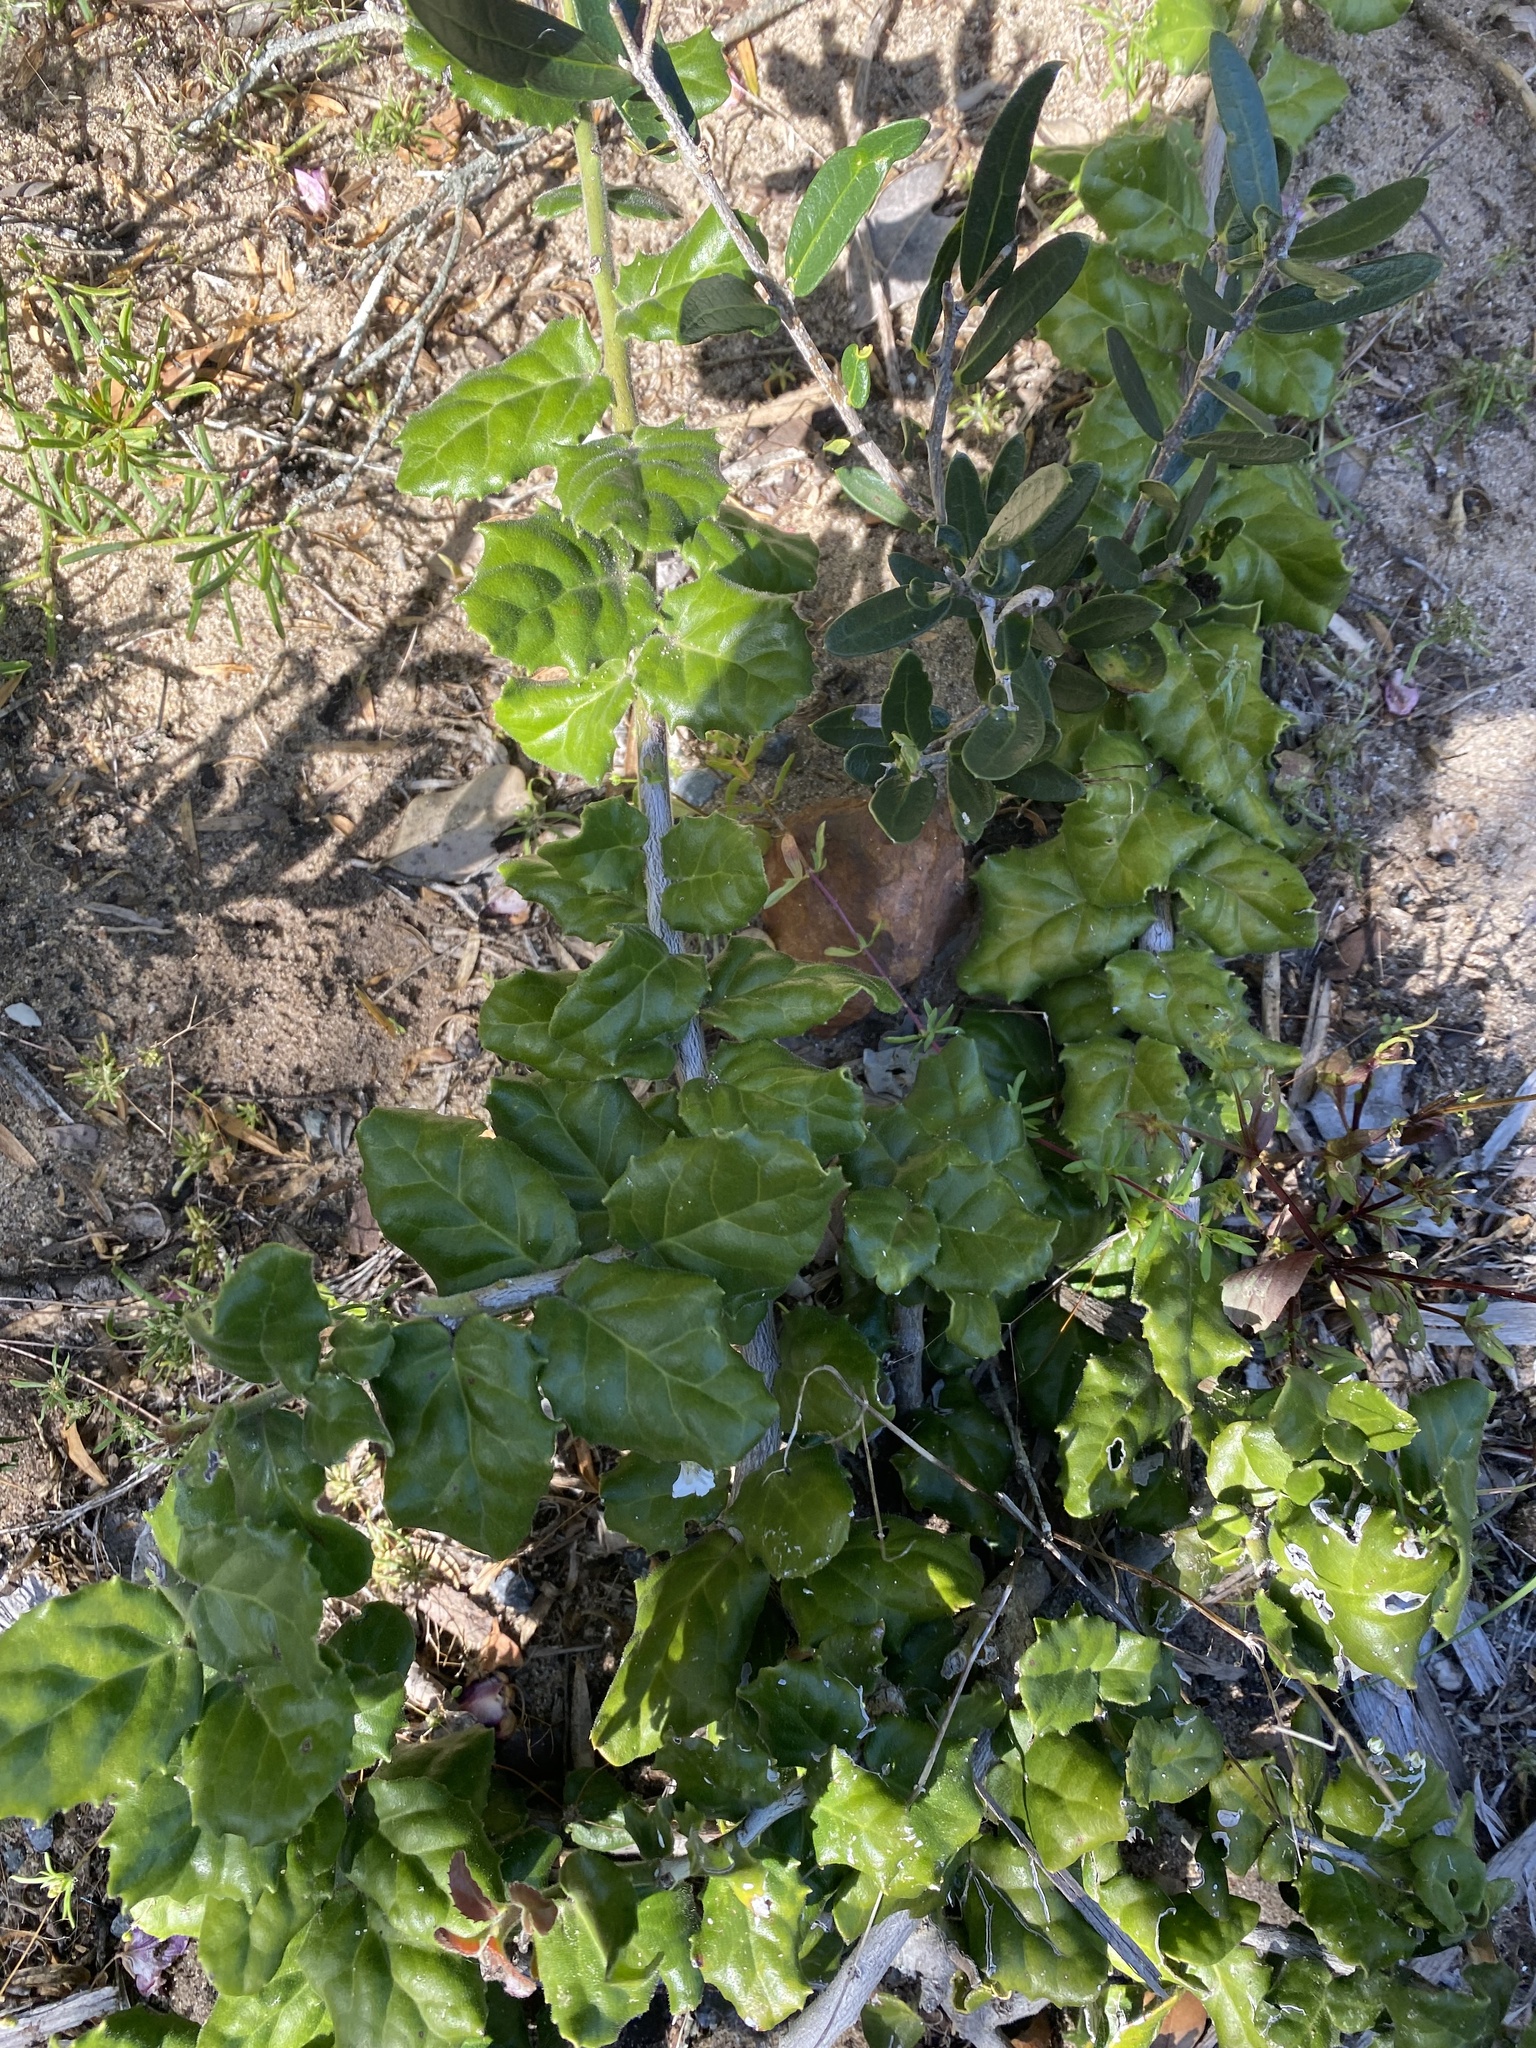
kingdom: Plantae
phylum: Tracheophyta
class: Magnoliopsida
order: Celastrales
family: Celastraceae
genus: Mystroxylon
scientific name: Mystroxylon aethiopicum
